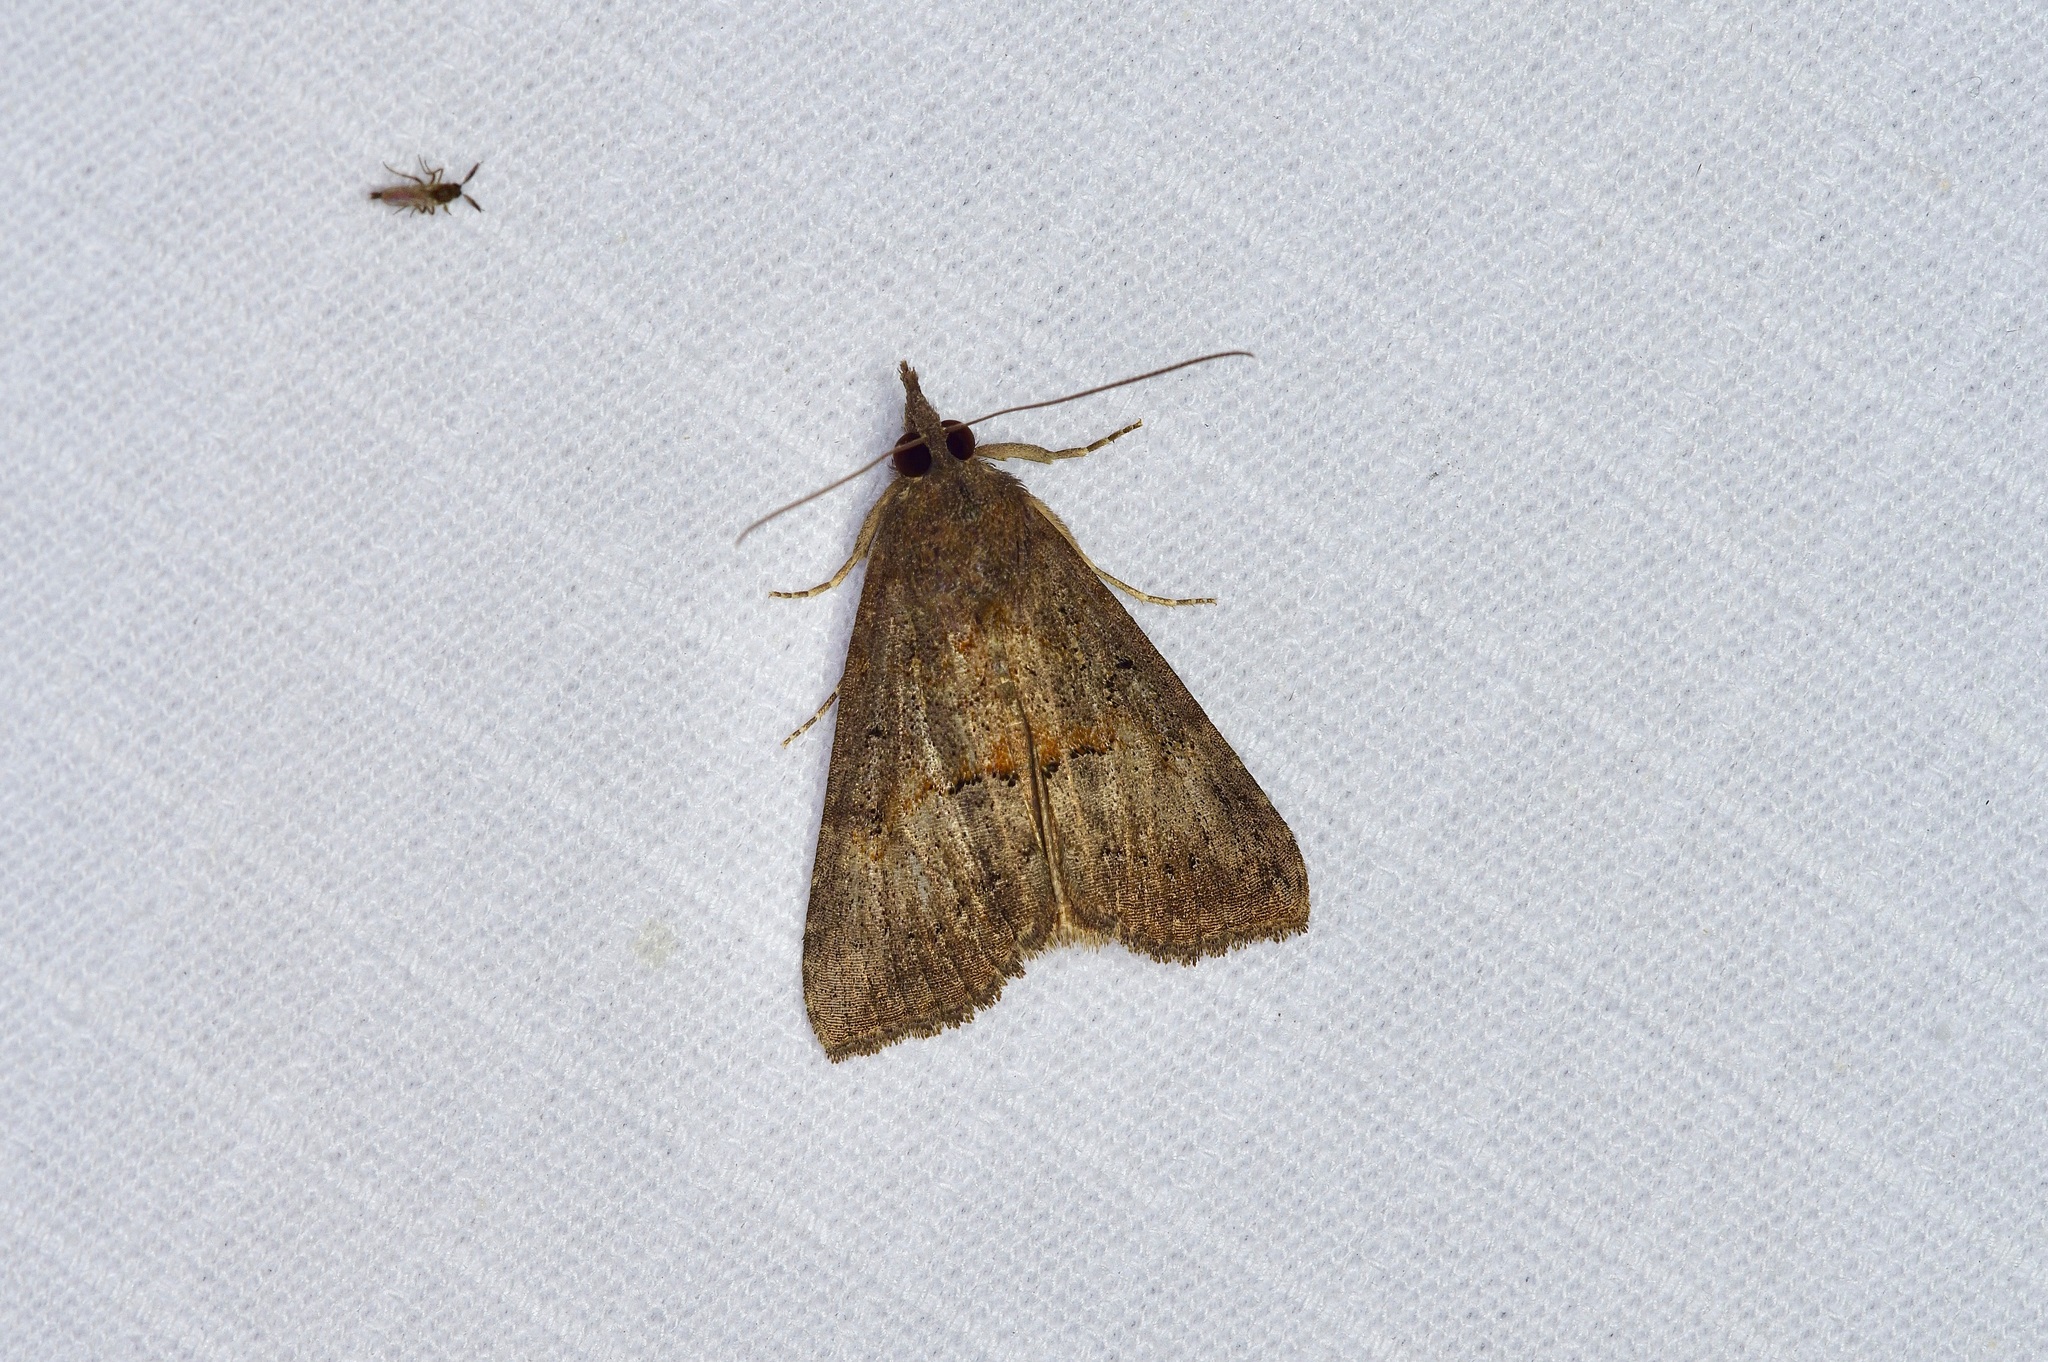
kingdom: Animalia
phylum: Arthropoda
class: Insecta
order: Lepidoptera
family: Erebidae
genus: Hypena
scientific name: Hypena scabra
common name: Green cloverworm
